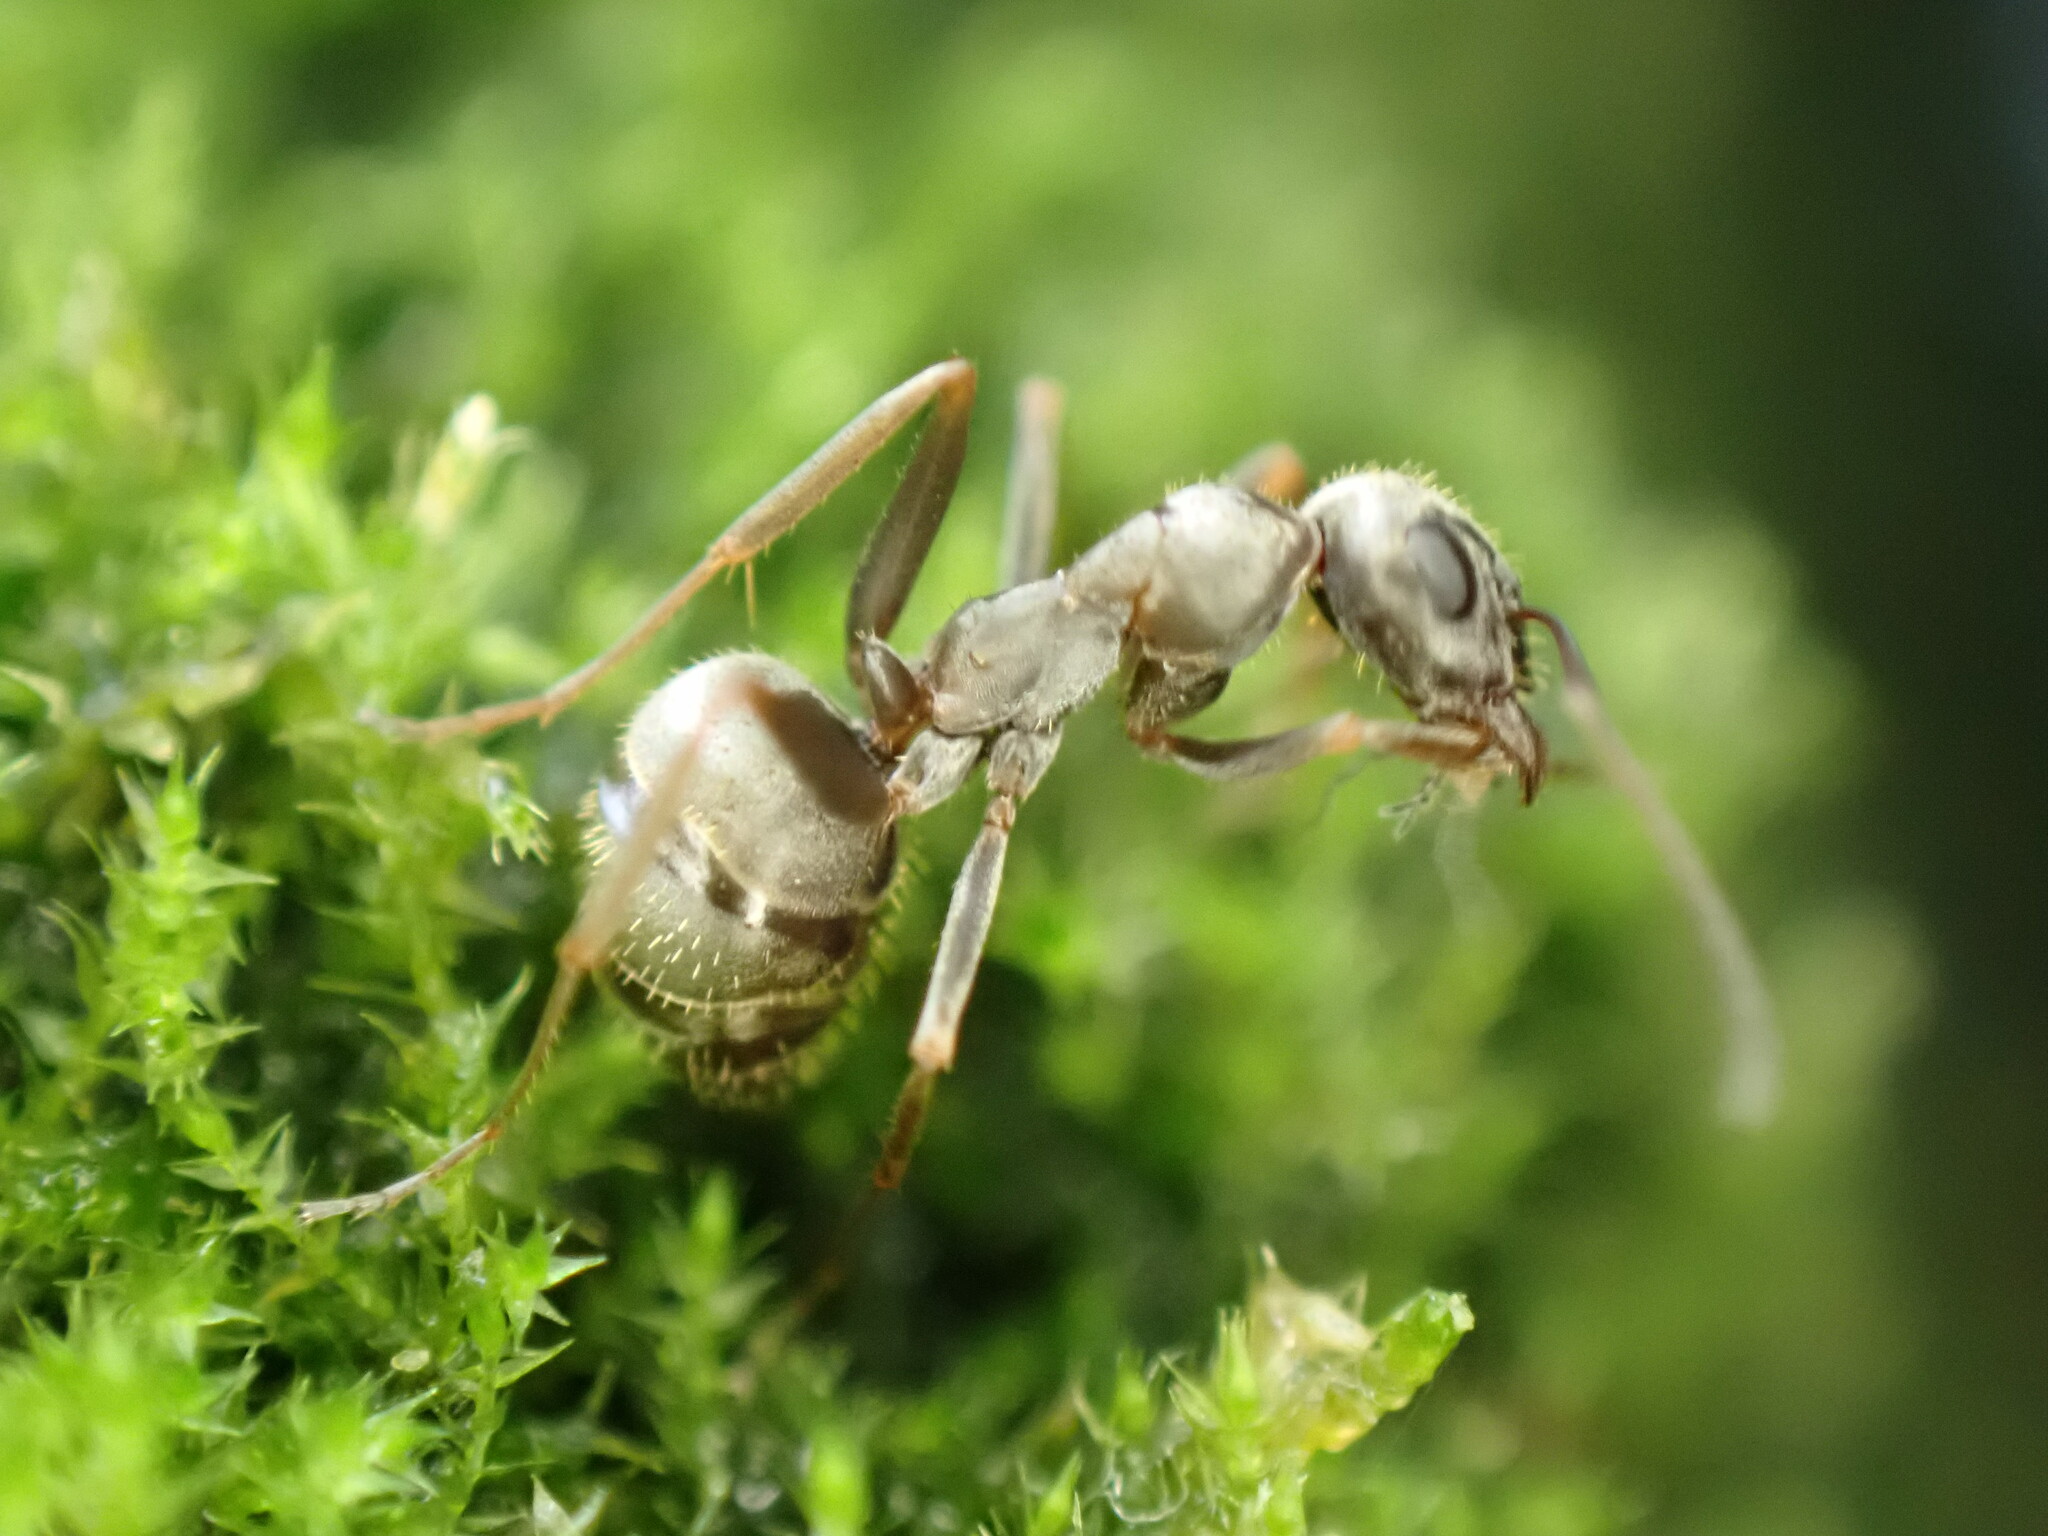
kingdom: Animalia
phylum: Arthropoda
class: Insecta
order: Hymenoptera
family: Formicidae
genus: Formica
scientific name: Formica cinerea
